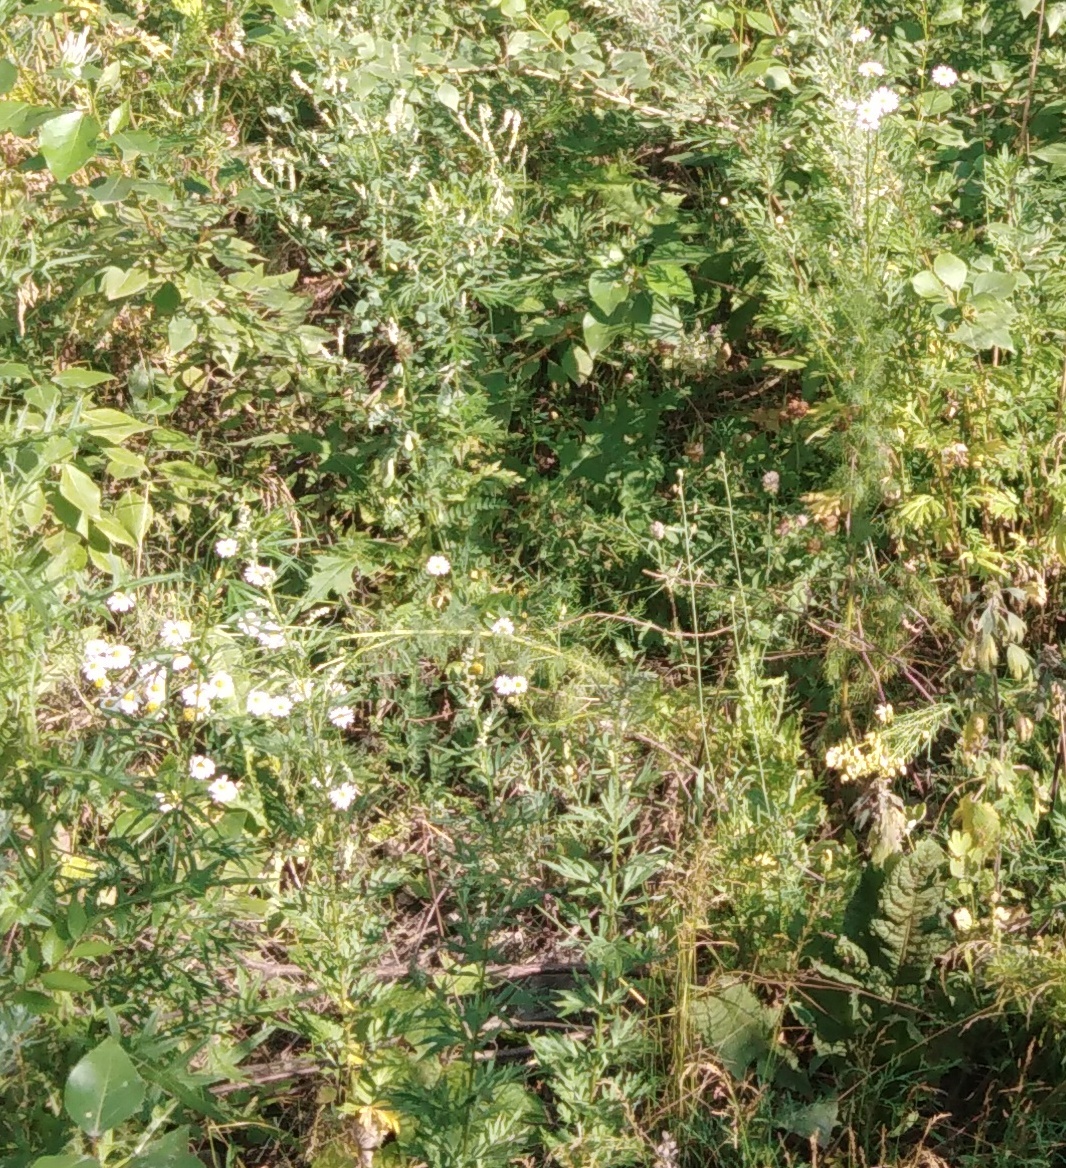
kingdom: Plantae
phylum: Tracheophyta
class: Magnoliopsida
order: Asterales
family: Asteraceae
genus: Tanacetum
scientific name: Tanacetum corymbosum
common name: Scentless feverfew
